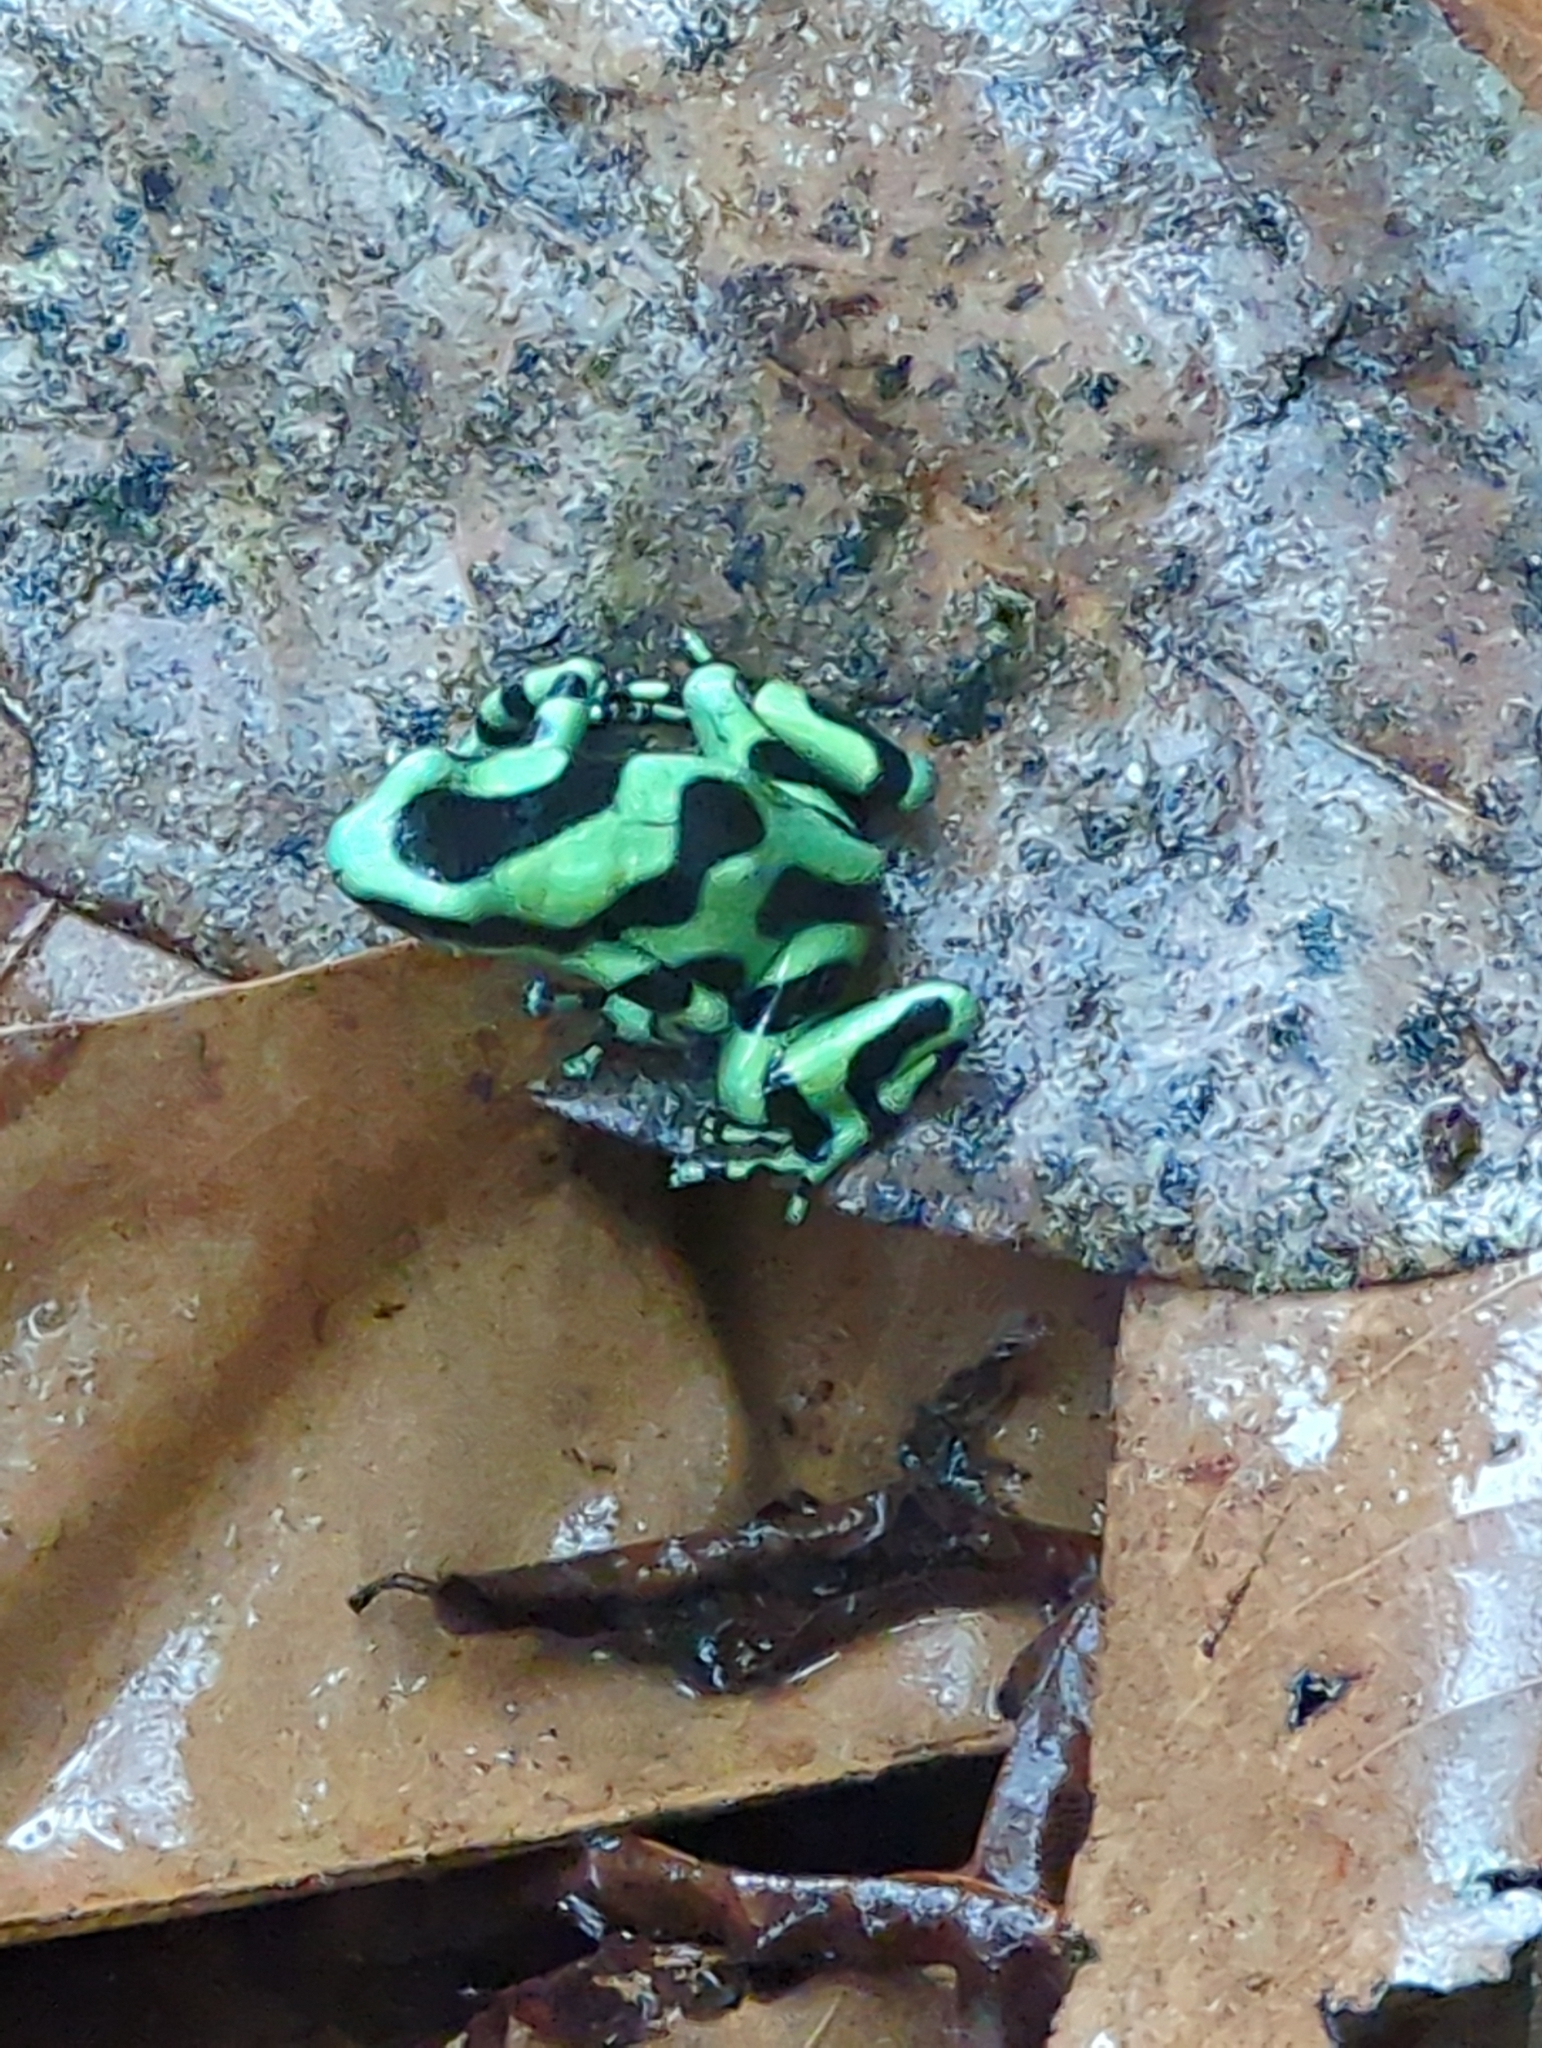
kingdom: Animalia
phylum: Chordata
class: Amphibia
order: Anura
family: Dendrobatidae
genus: Dendrobates
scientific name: Dendrobates auratus
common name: Green and black poison dart frog
